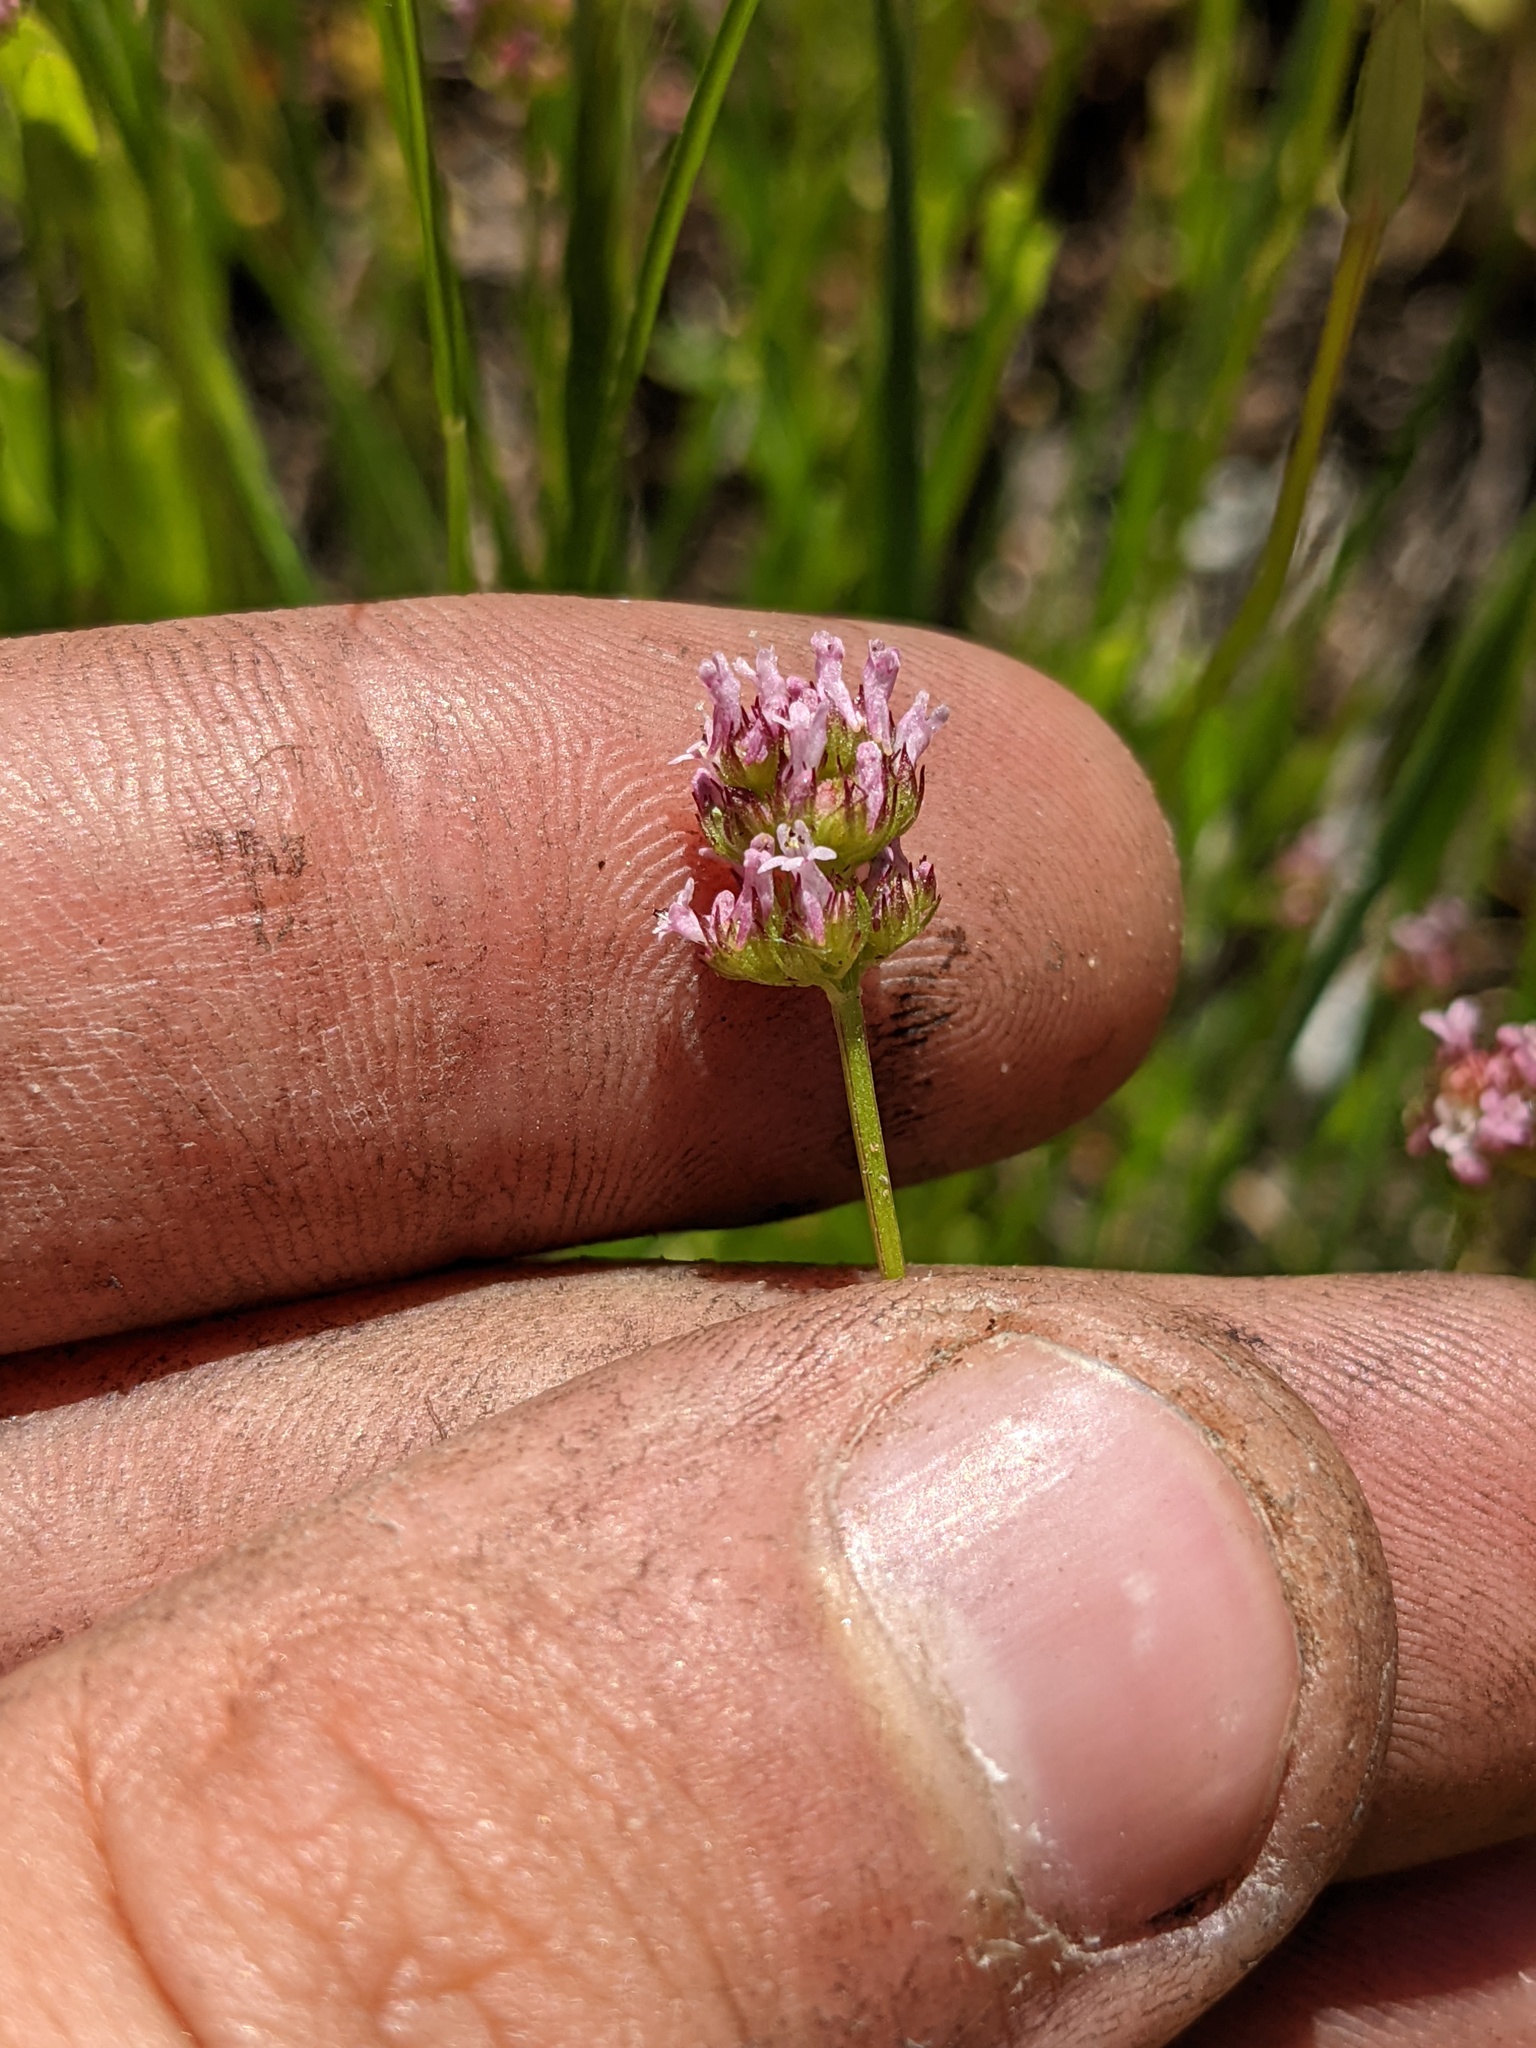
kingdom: Plantae
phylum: Tracheophyta
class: Magnoliopsida
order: Dipsacales
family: Caprifoliaceae
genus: Plectritis
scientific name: Plectritis ciliosa
